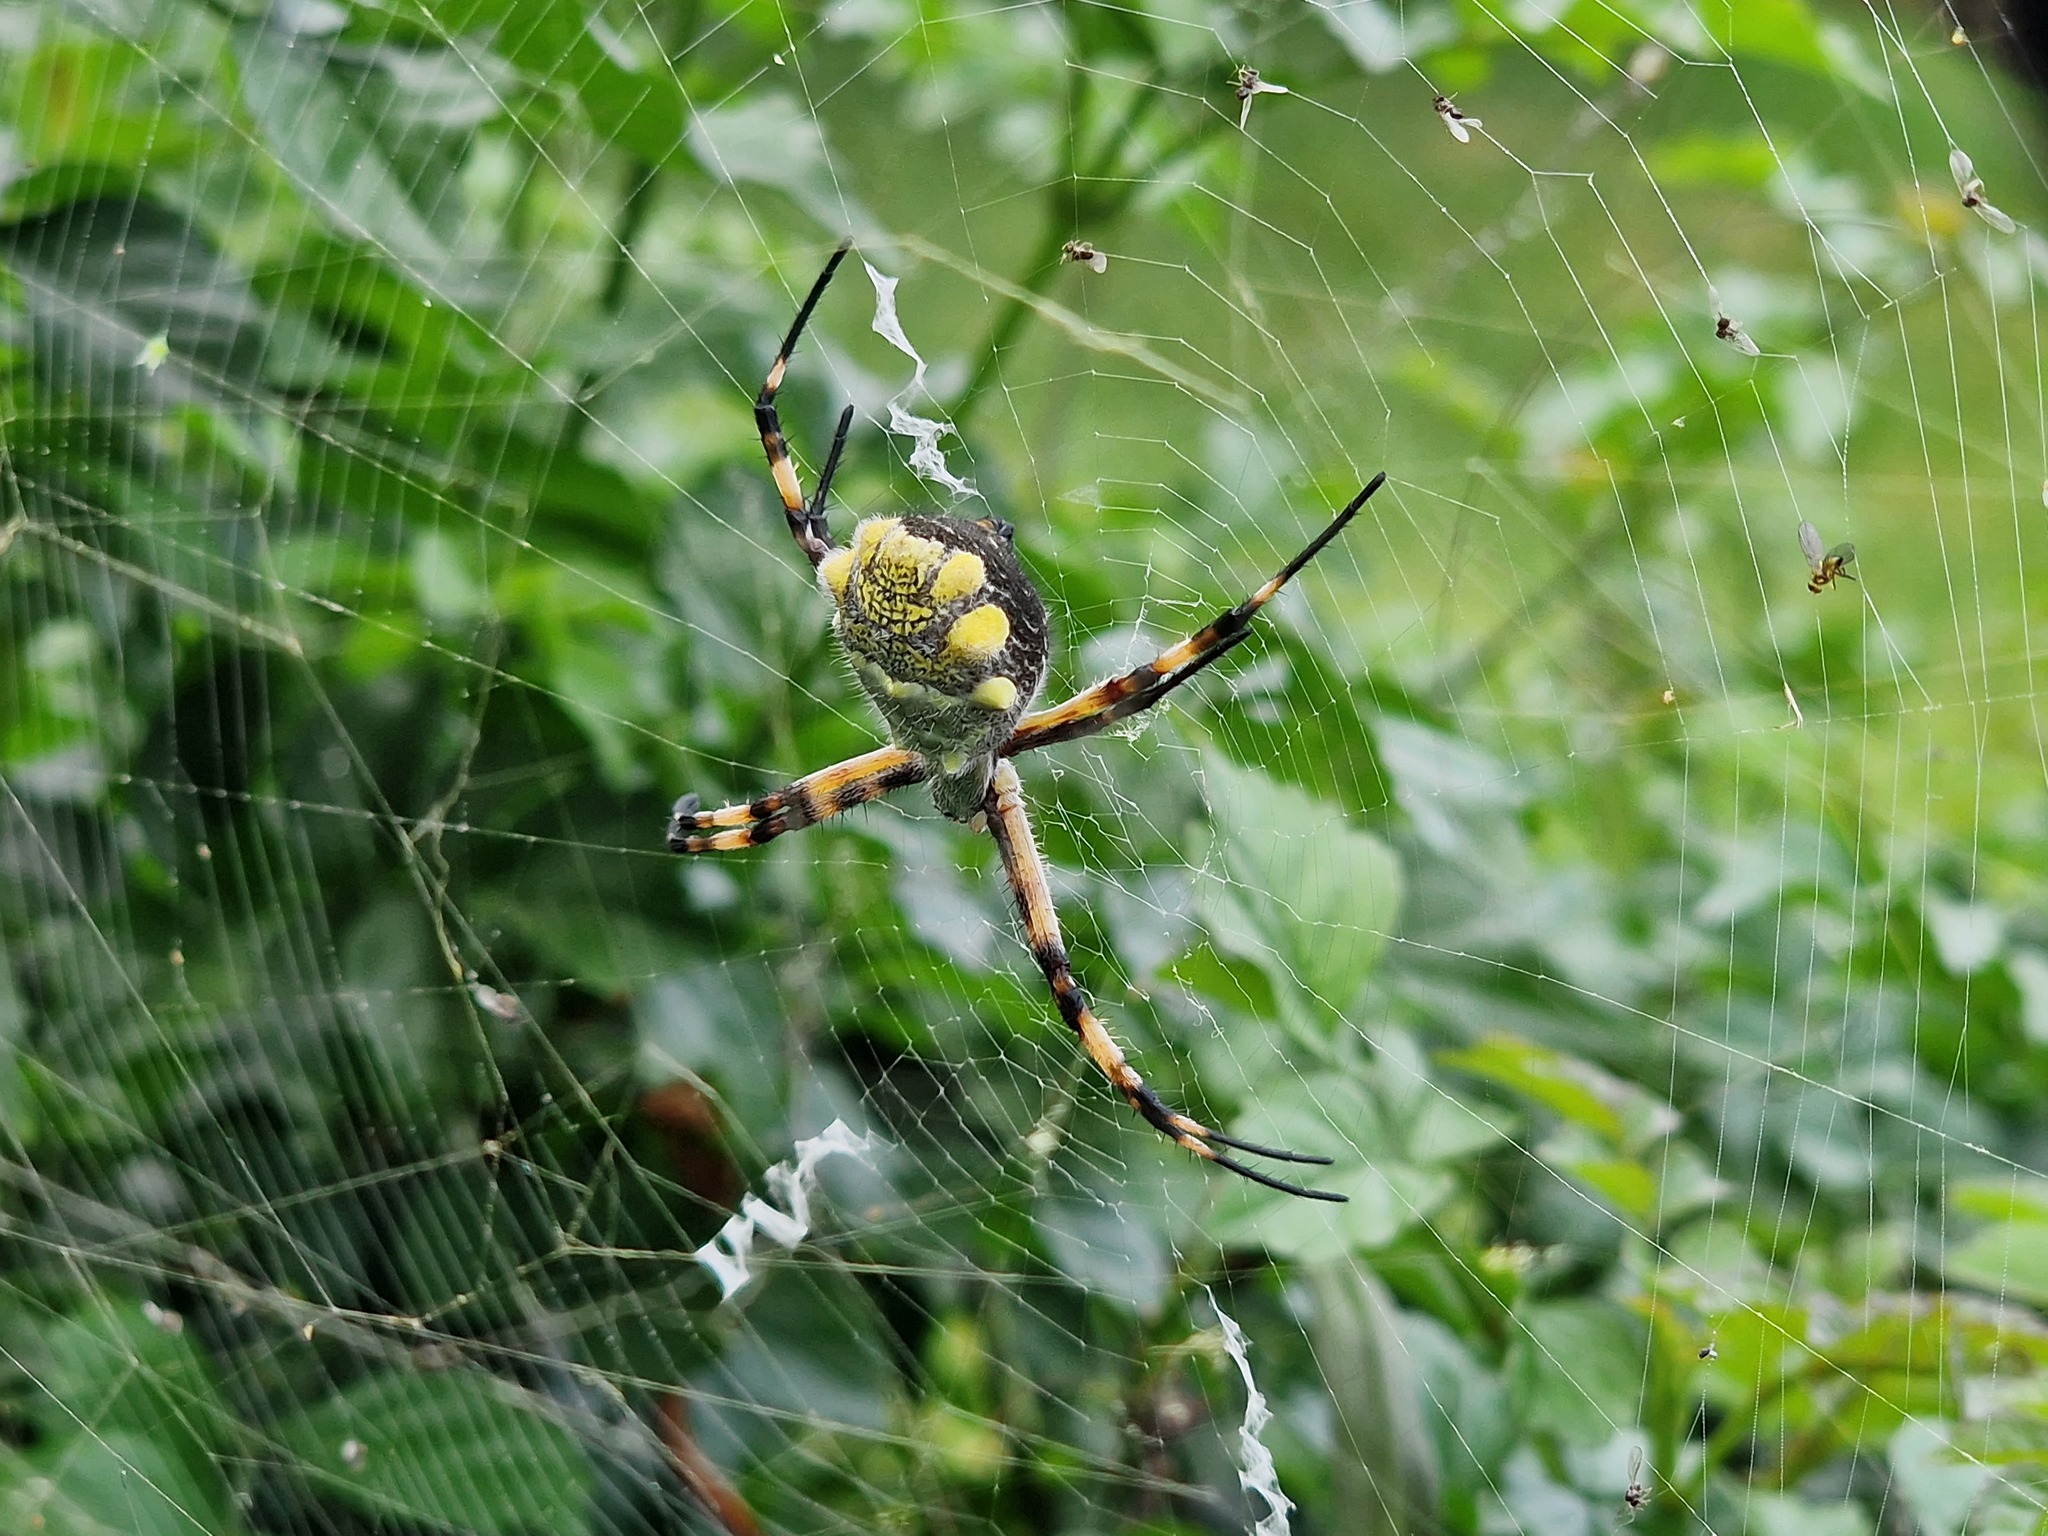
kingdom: Animalia
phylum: Arthropoda
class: Arachnida
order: Araneae
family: Araneidae
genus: Argiope
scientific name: Argiope argentata
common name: Orb weavers
